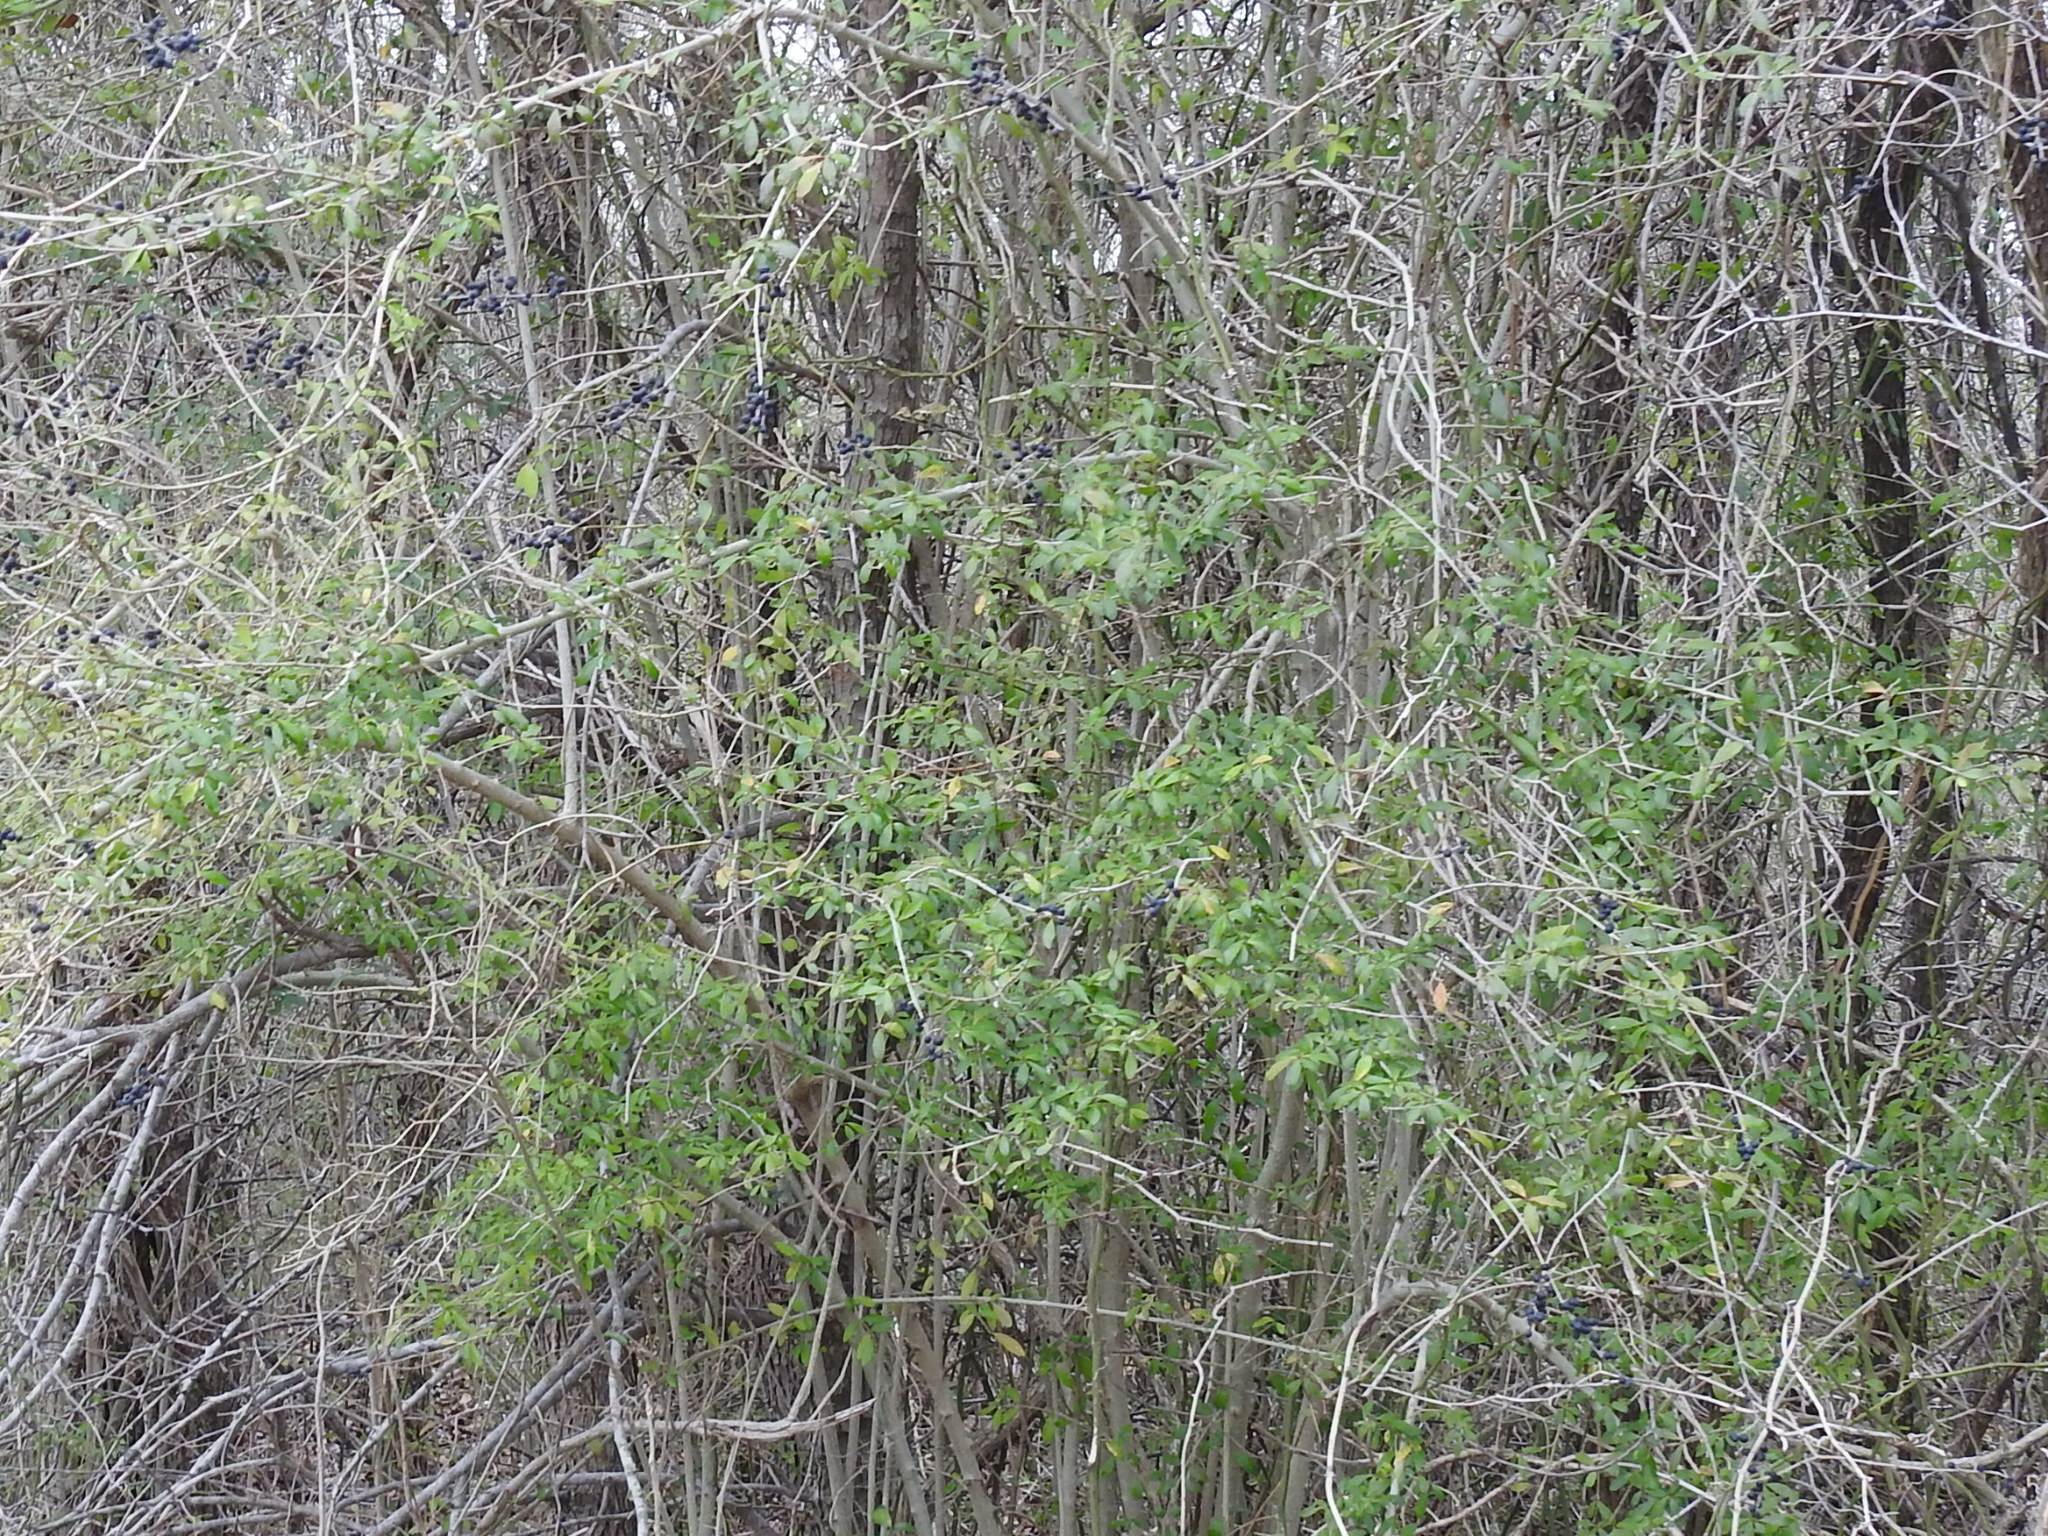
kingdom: Plantae
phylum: Tracheophyta
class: Magnoliopsida
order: Lamiales
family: Oleaceae
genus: Ligustrum
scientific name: Ligustrum quihoui
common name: Waxyleaf privet
